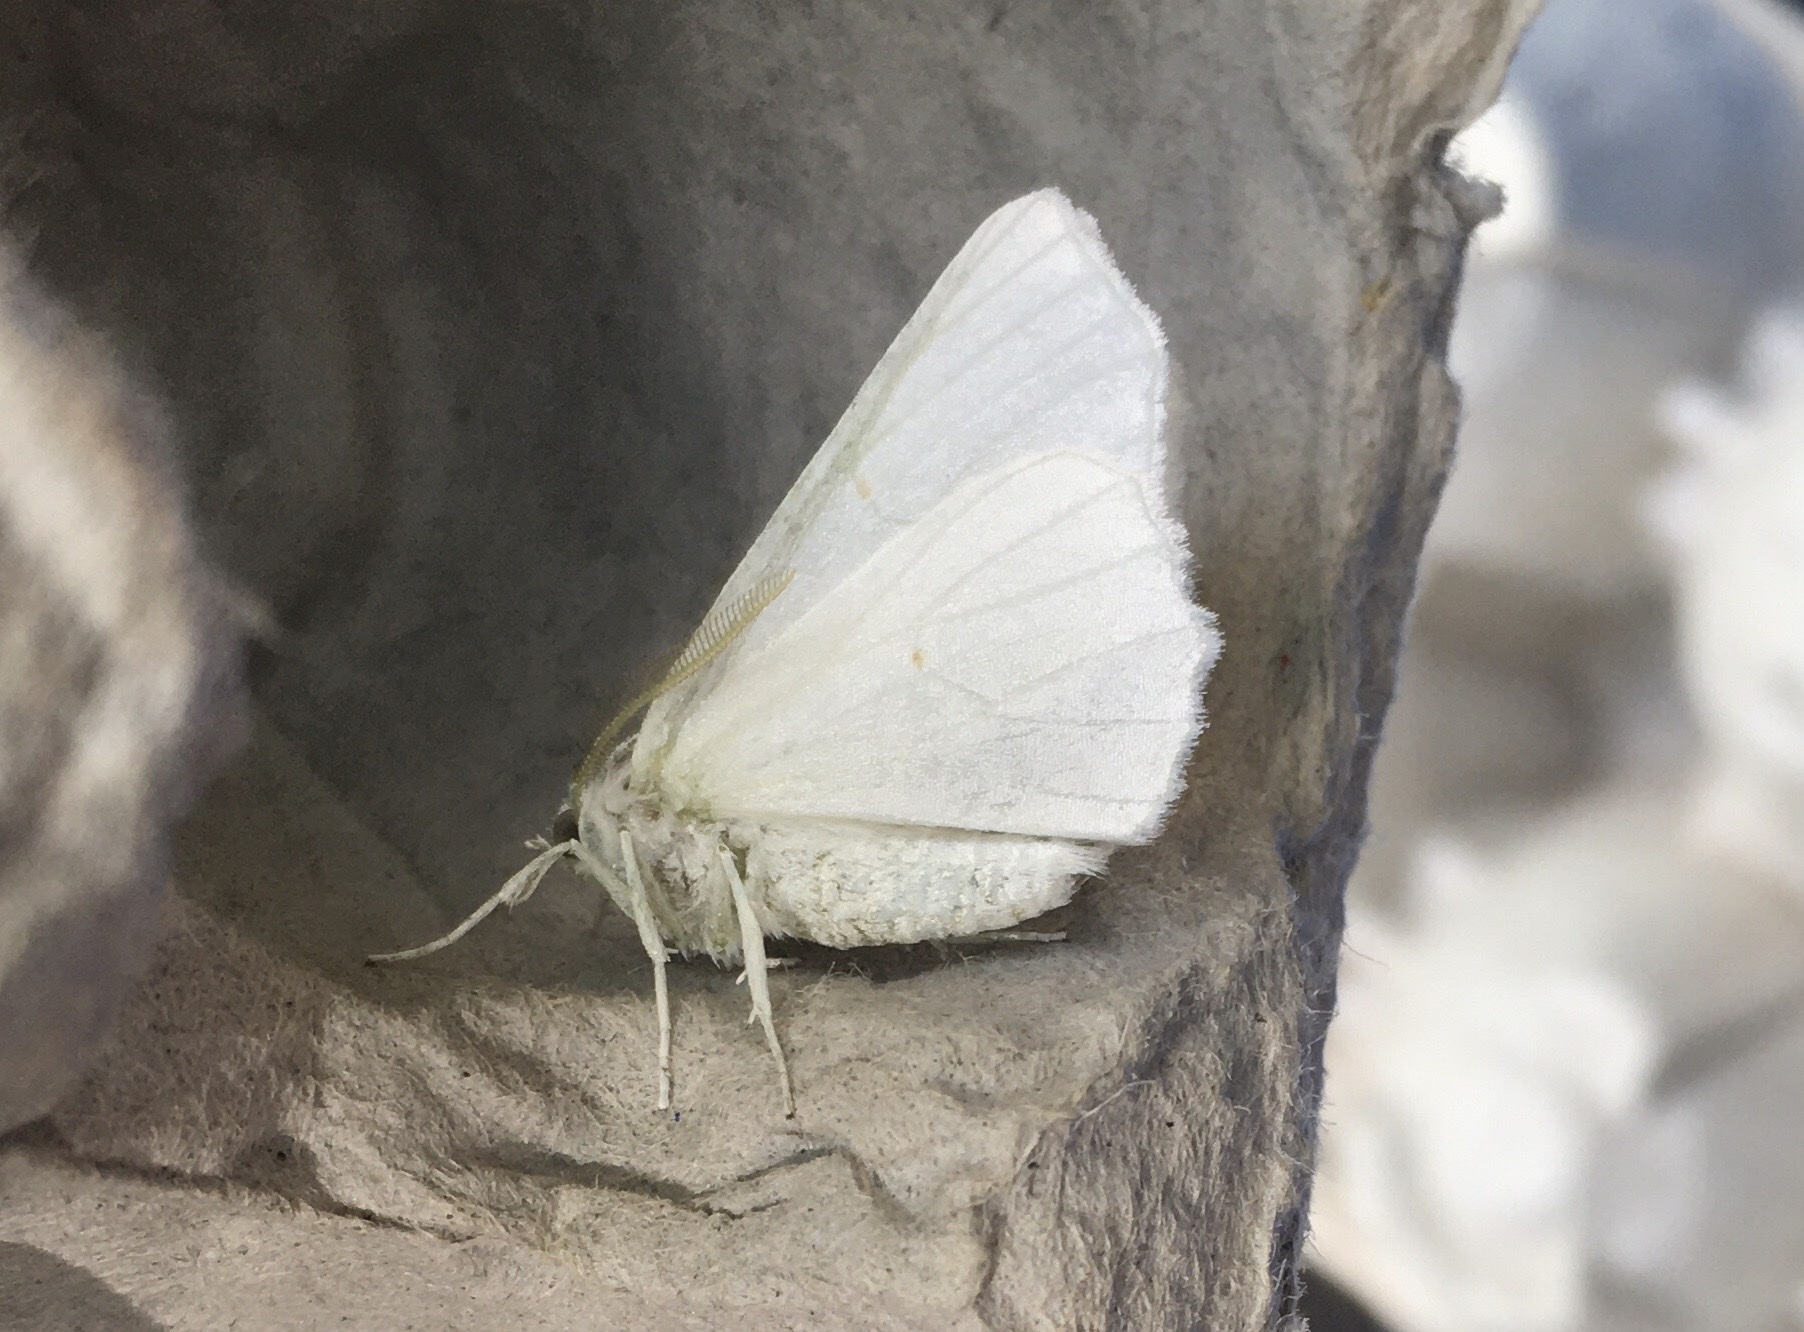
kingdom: Animalia
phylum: Arthropoda
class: Insecta
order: Lepidoptera
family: Geometridae
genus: Ennomos
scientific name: Ennomos subsignaria
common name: Elm spanworm
